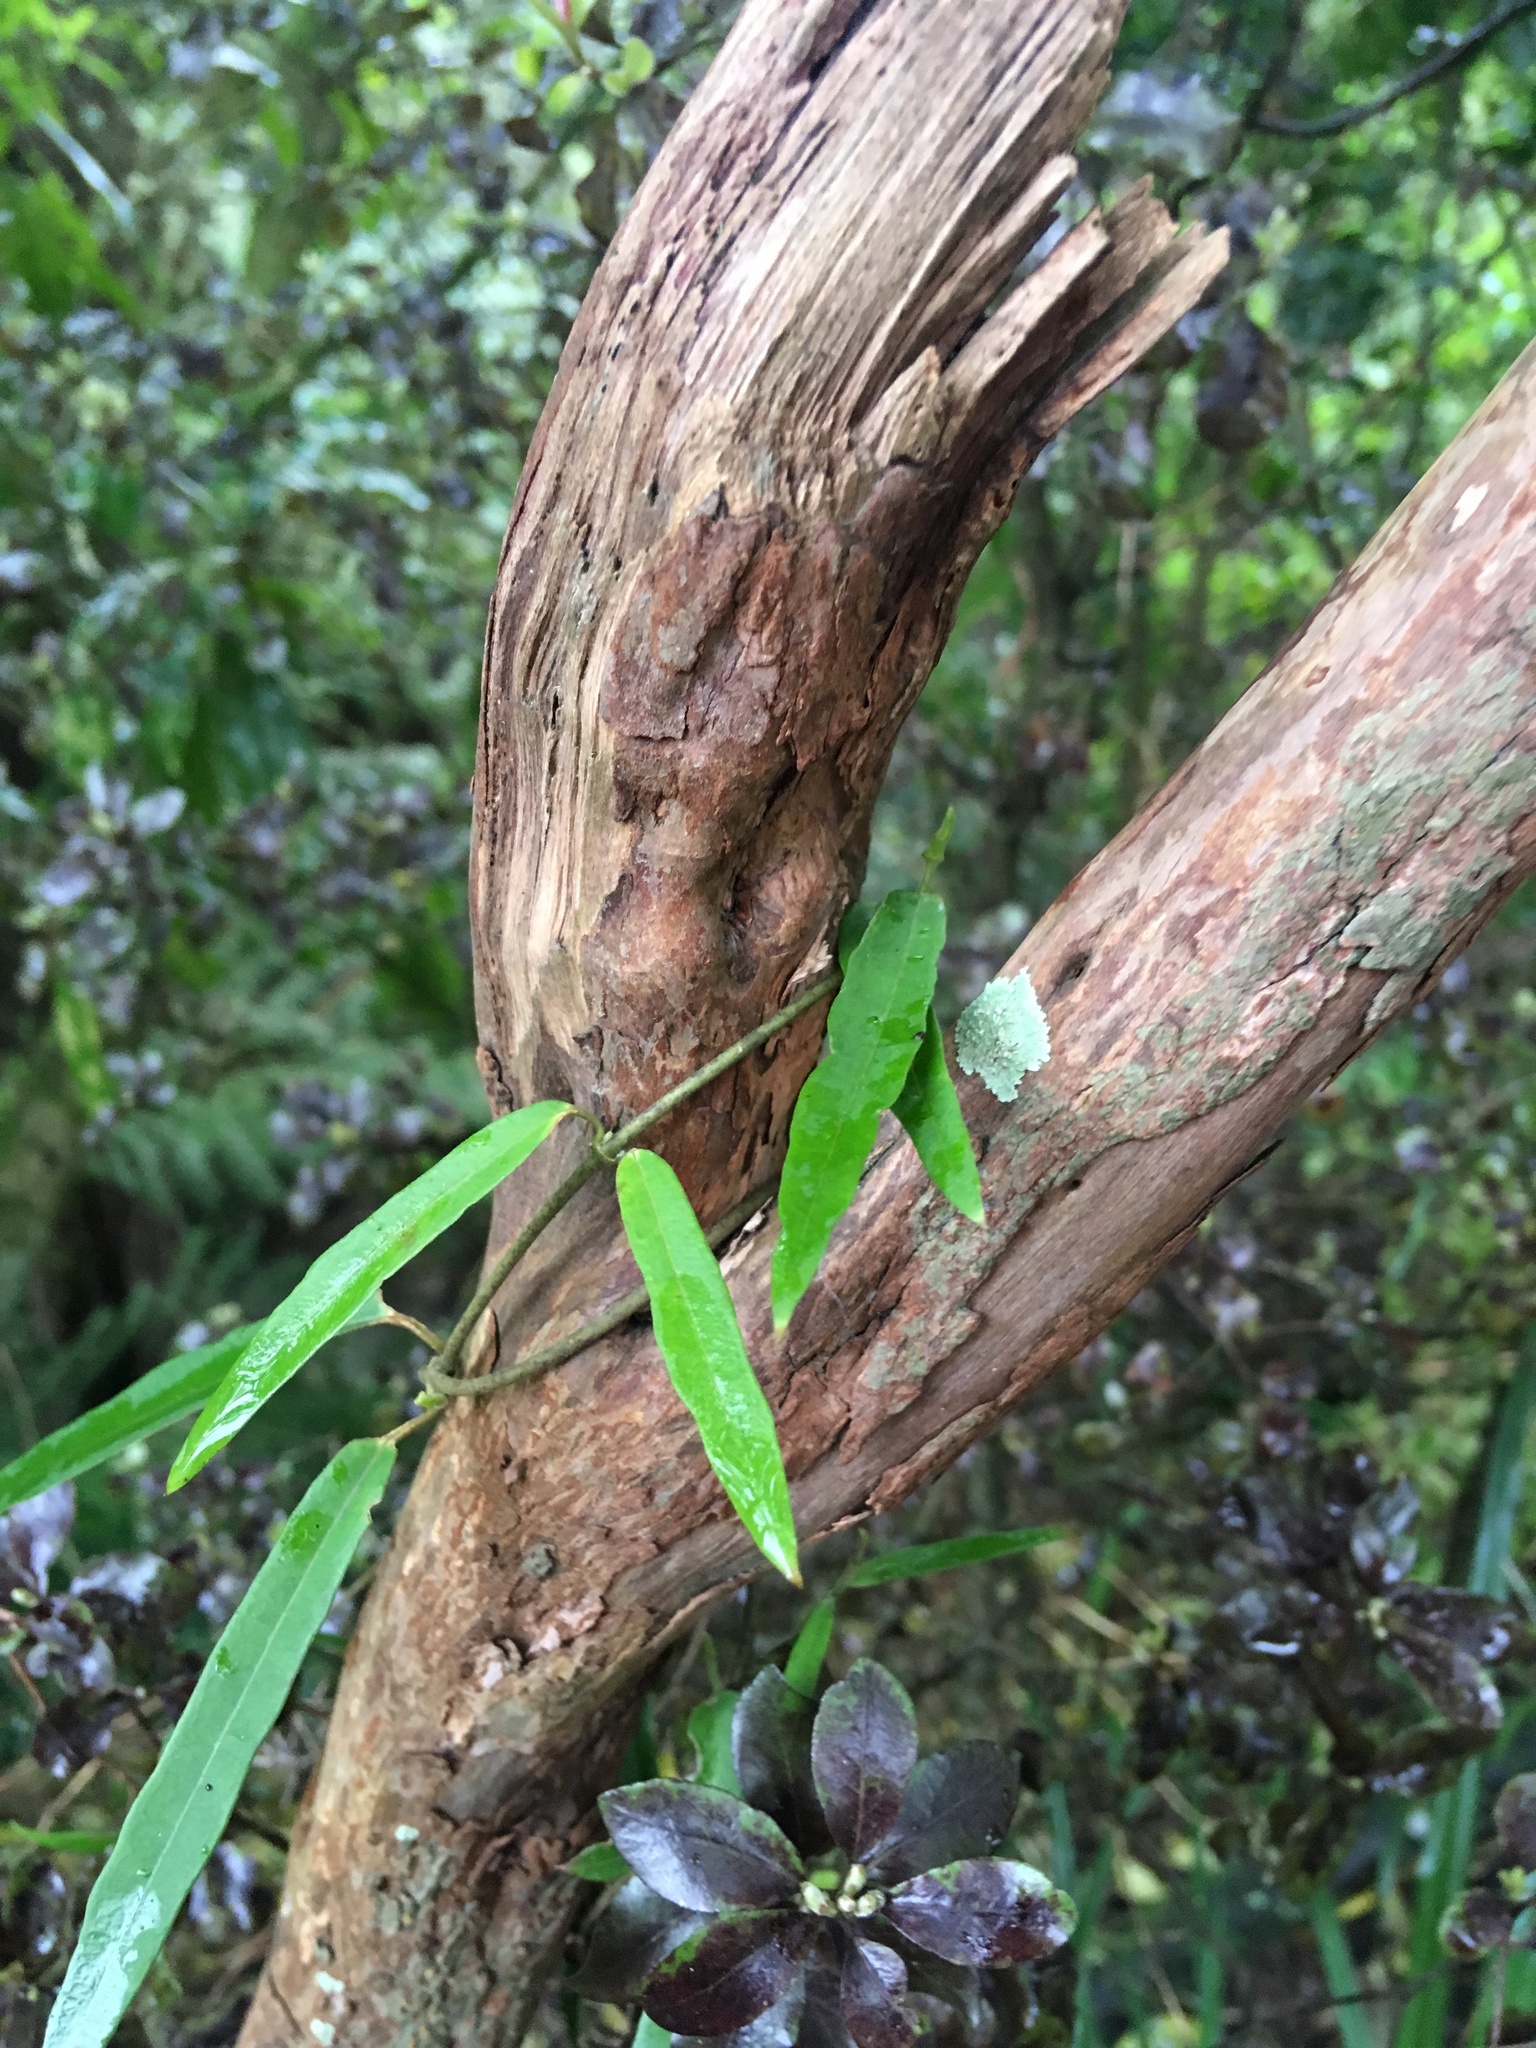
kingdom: Plantae
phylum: Tracheophyta
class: Magnoliopsida
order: Gentianales
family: Apocynaceae
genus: Parsonsia
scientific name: Parsonsia heterophylla
